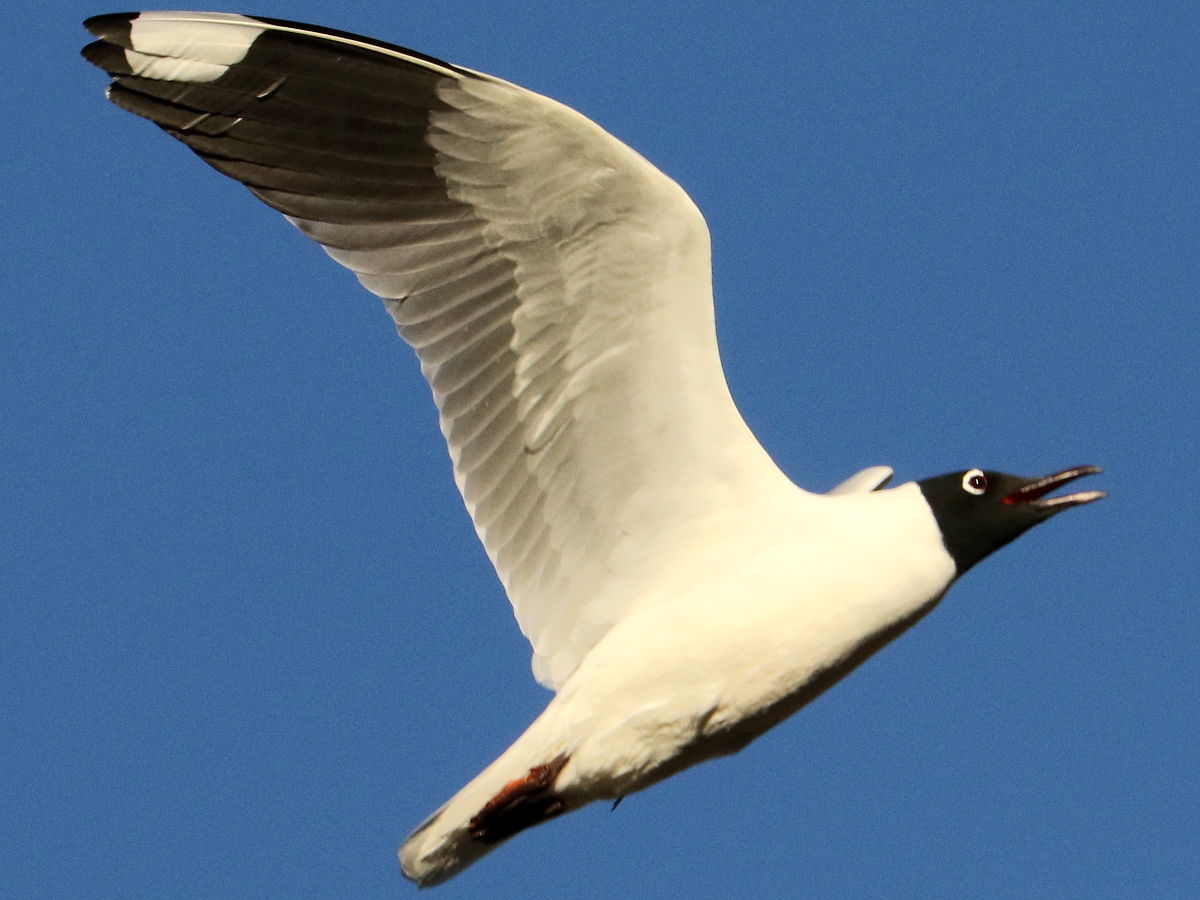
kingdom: Animalia
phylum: Chordata
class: Aves
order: Charadriiformes
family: Laridae
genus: Chroicocephalus
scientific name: Chroicocephalus serranus
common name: Andean gull
